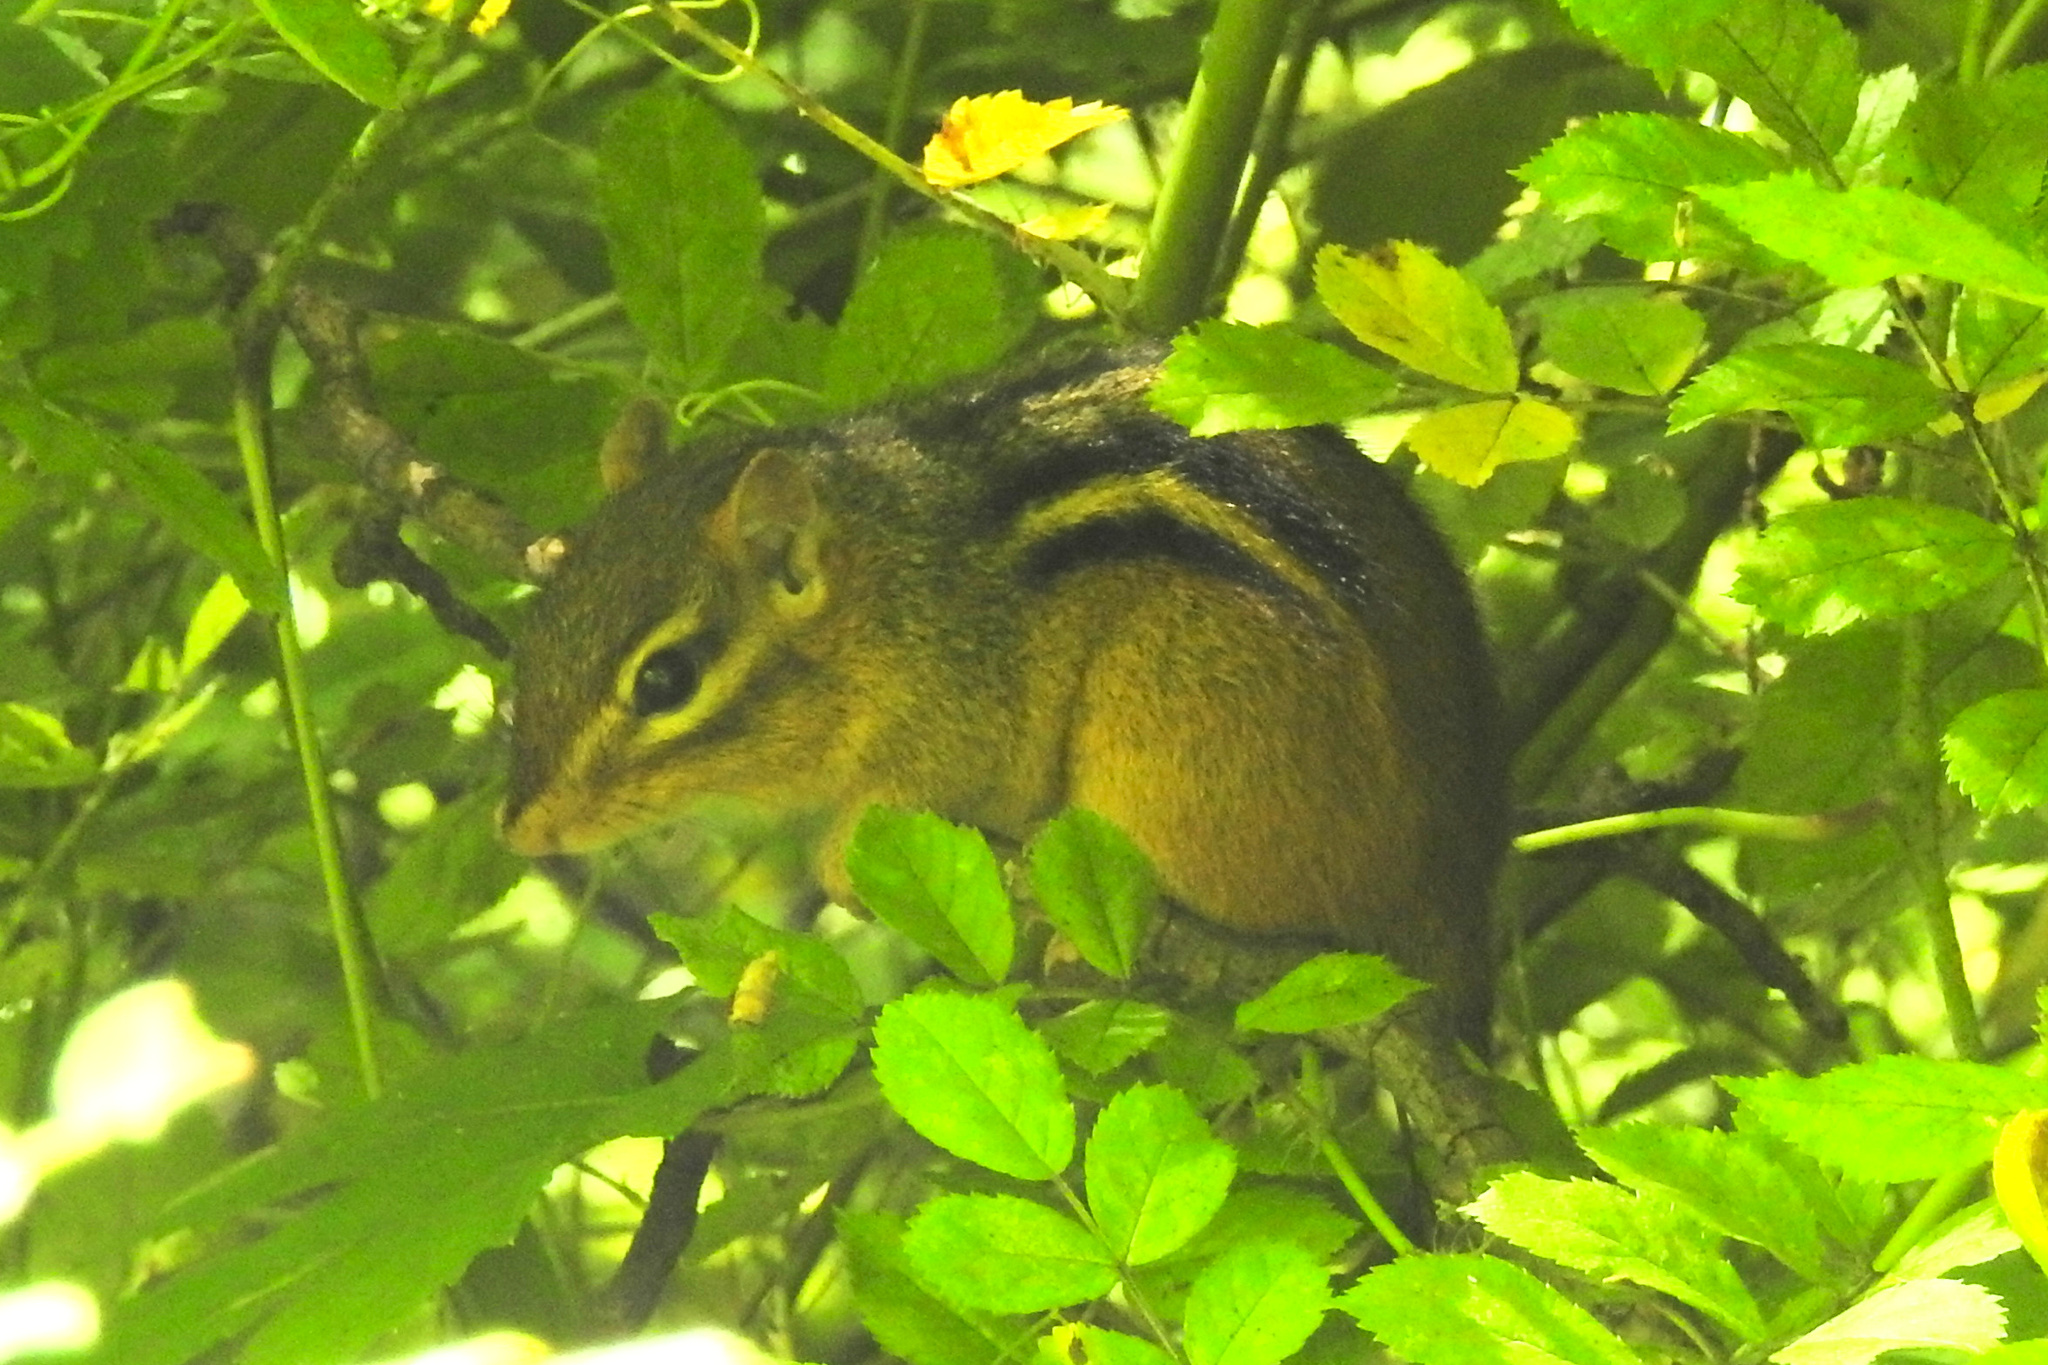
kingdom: Animalia
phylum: Chordata
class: Mammalia
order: Rodentia
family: Sciuridae
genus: Tamias
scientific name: Tamias striatus
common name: Eastern chipmunk
